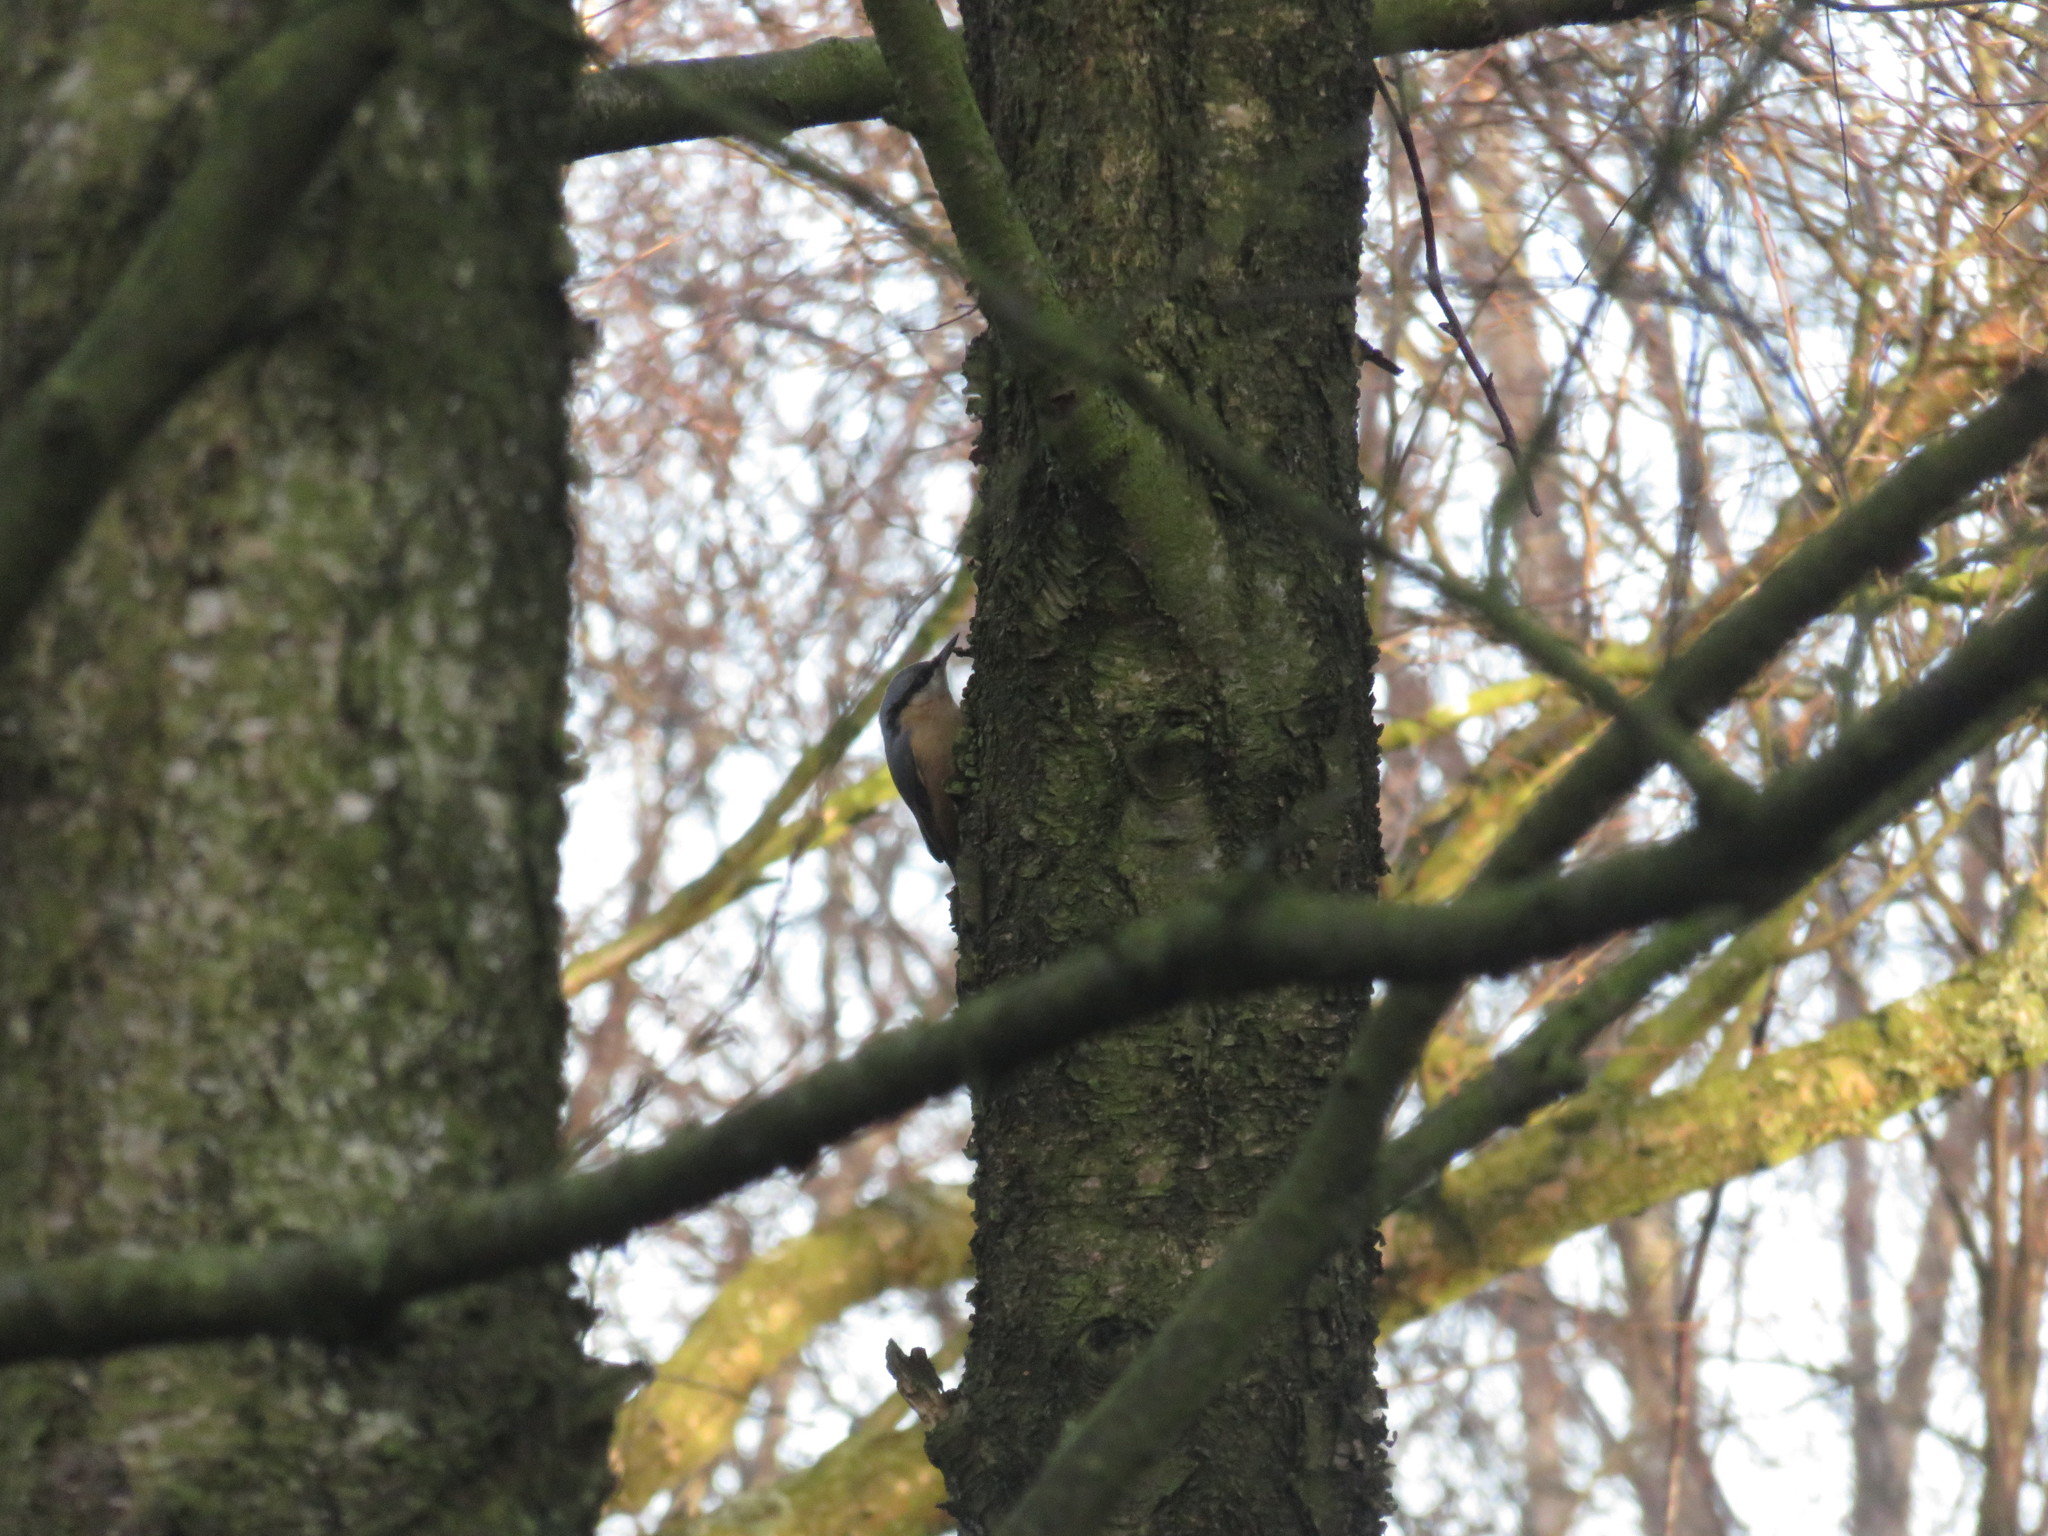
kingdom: Animalia
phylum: Chordata
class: Aves
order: Passeriformes
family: Sittidae
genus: Sitta
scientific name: Sitta europaea
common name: Eurasian nuthatch
